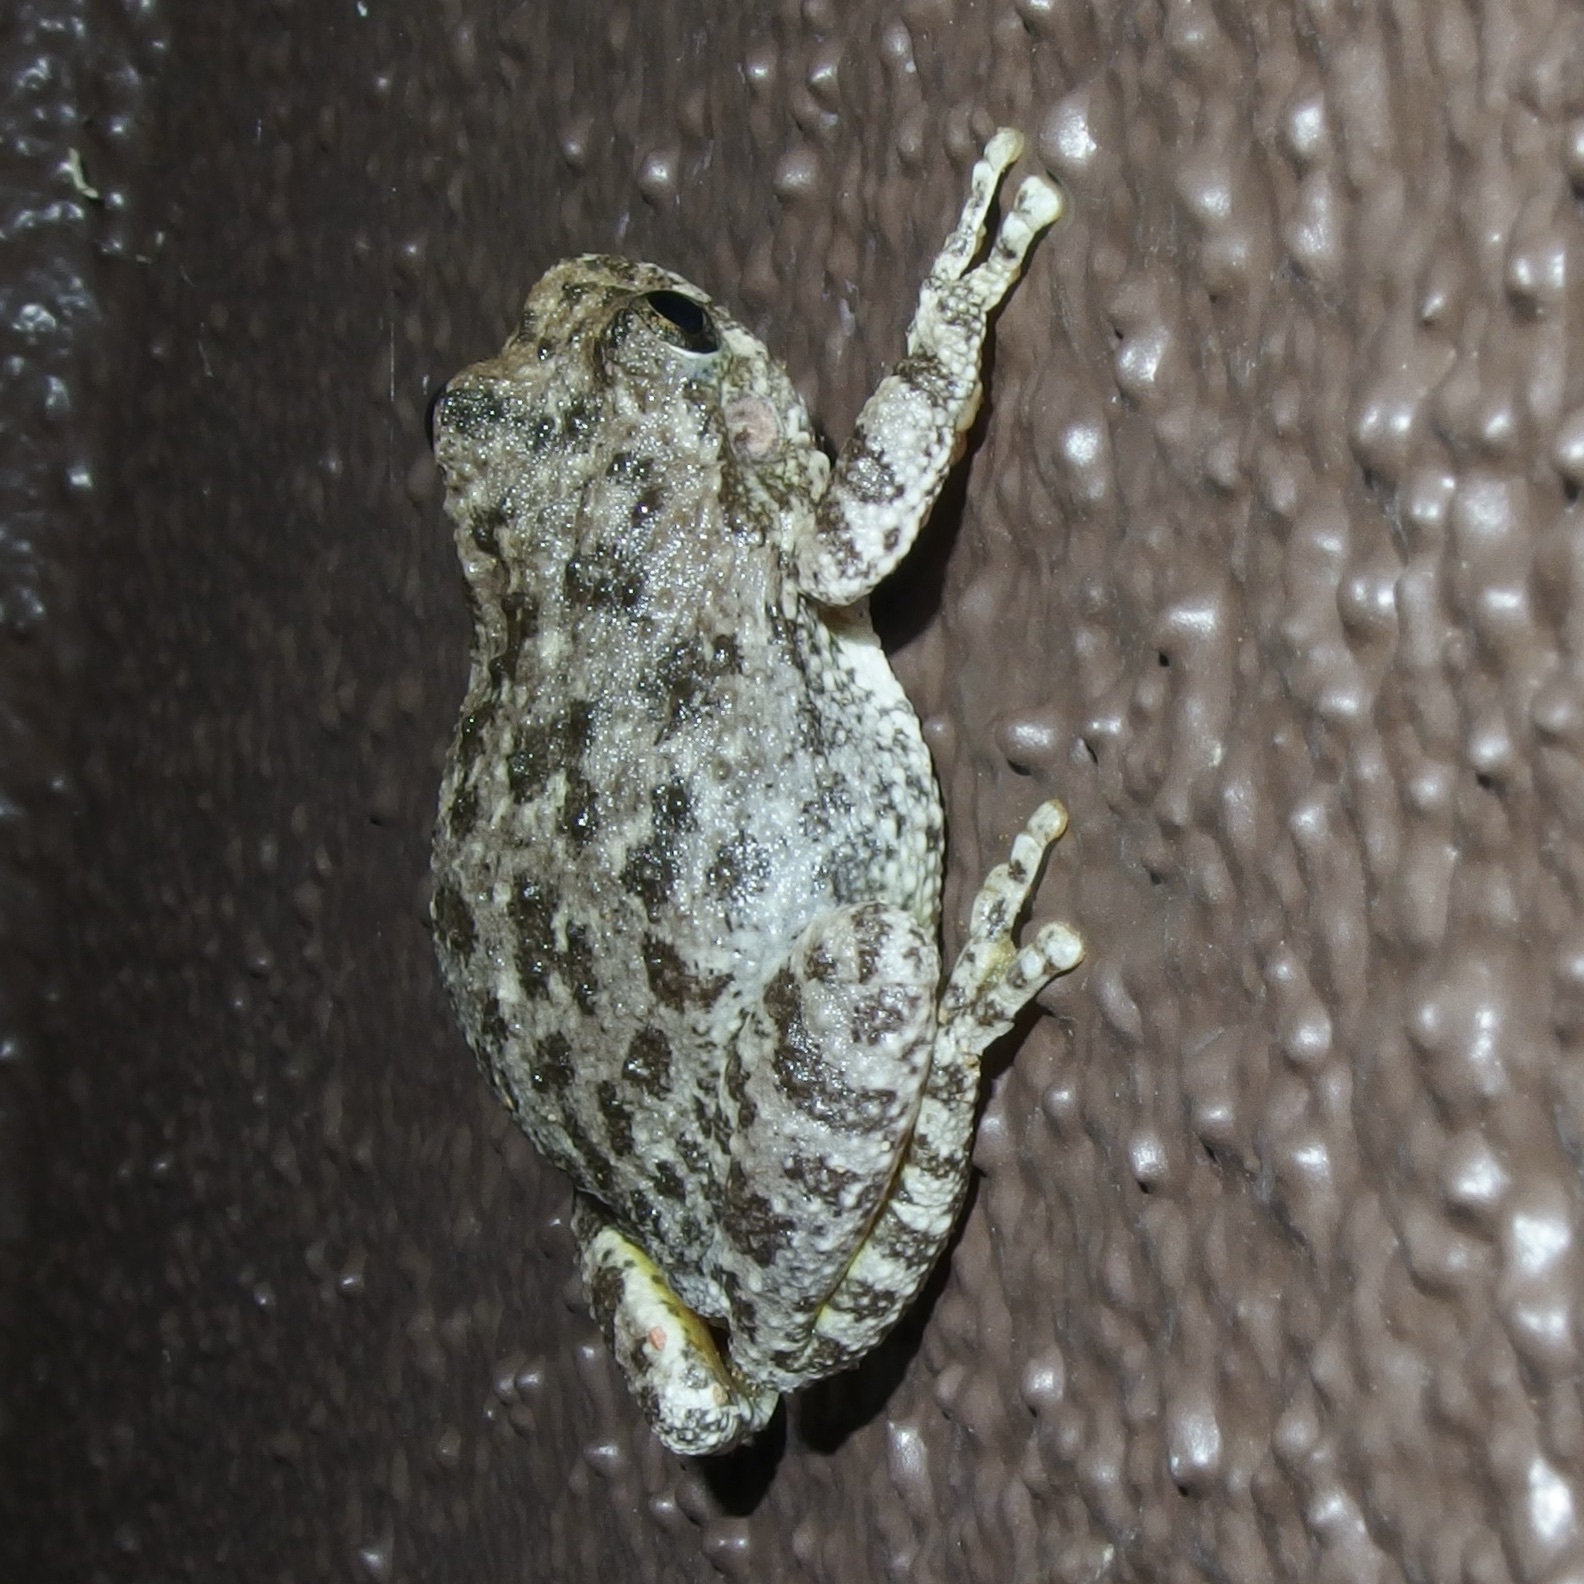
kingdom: Animalia
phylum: Chordata
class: Amphibia
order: Anura
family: Hylidae
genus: Dryophytes
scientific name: Dryophytes arenicolor
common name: Canyon treefrog
